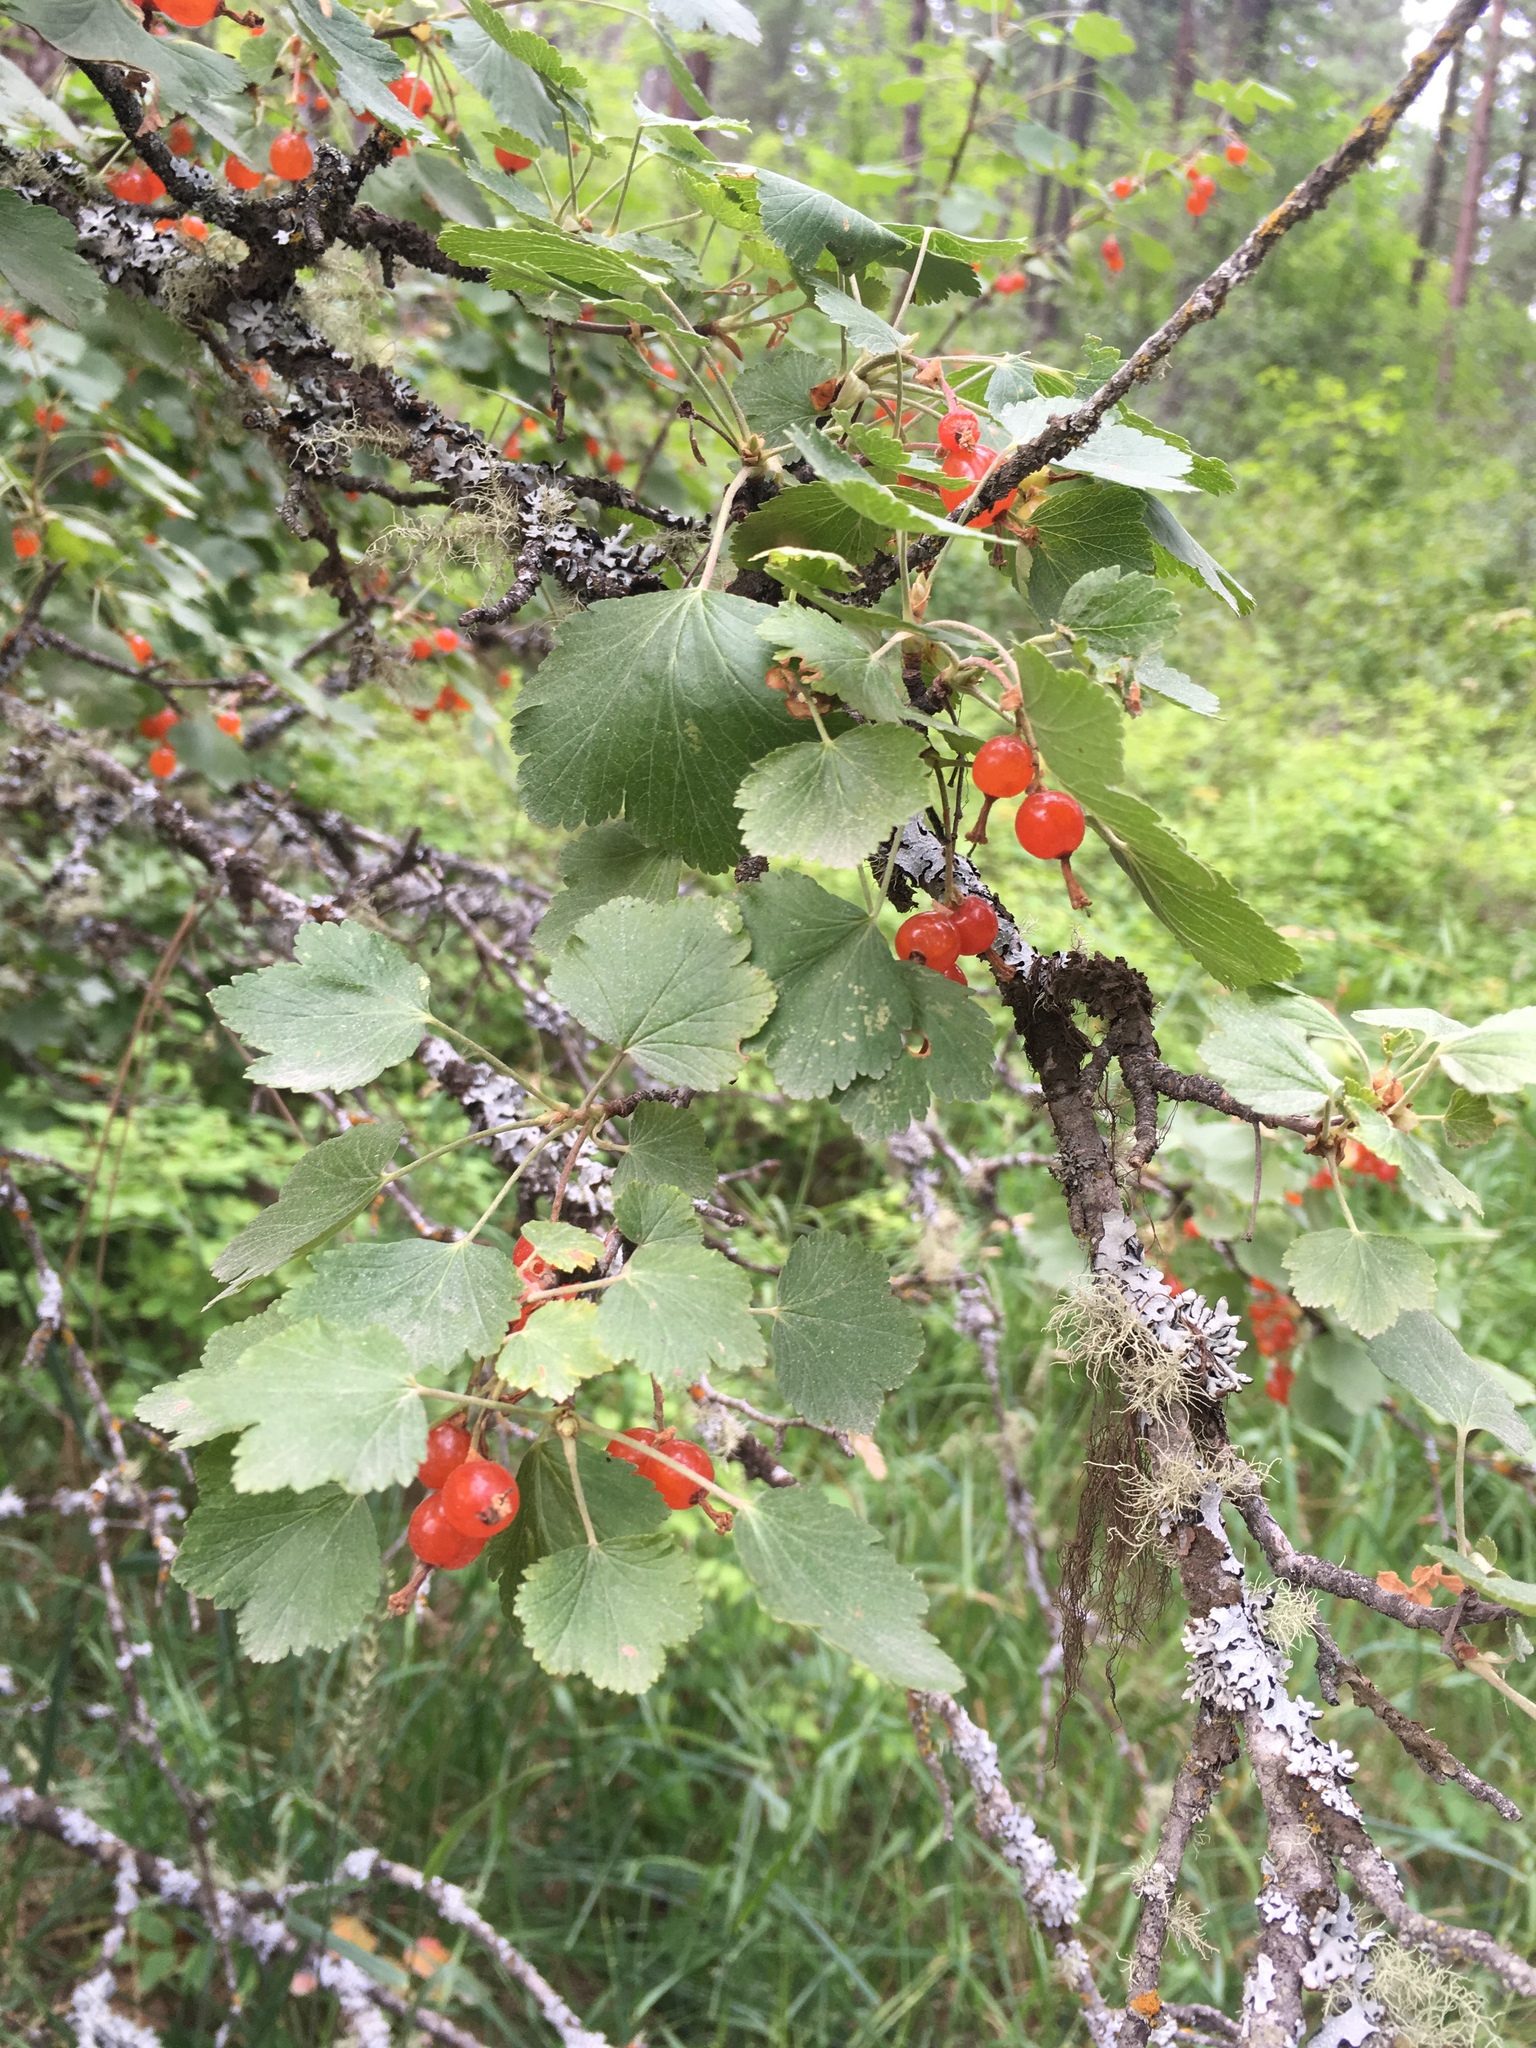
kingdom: Plantae
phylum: Tracheophyta
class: Magnoliopsida
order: Saxifragales
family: Grossulariaceae
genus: Ribes
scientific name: Ribes cereum
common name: Wax currant
